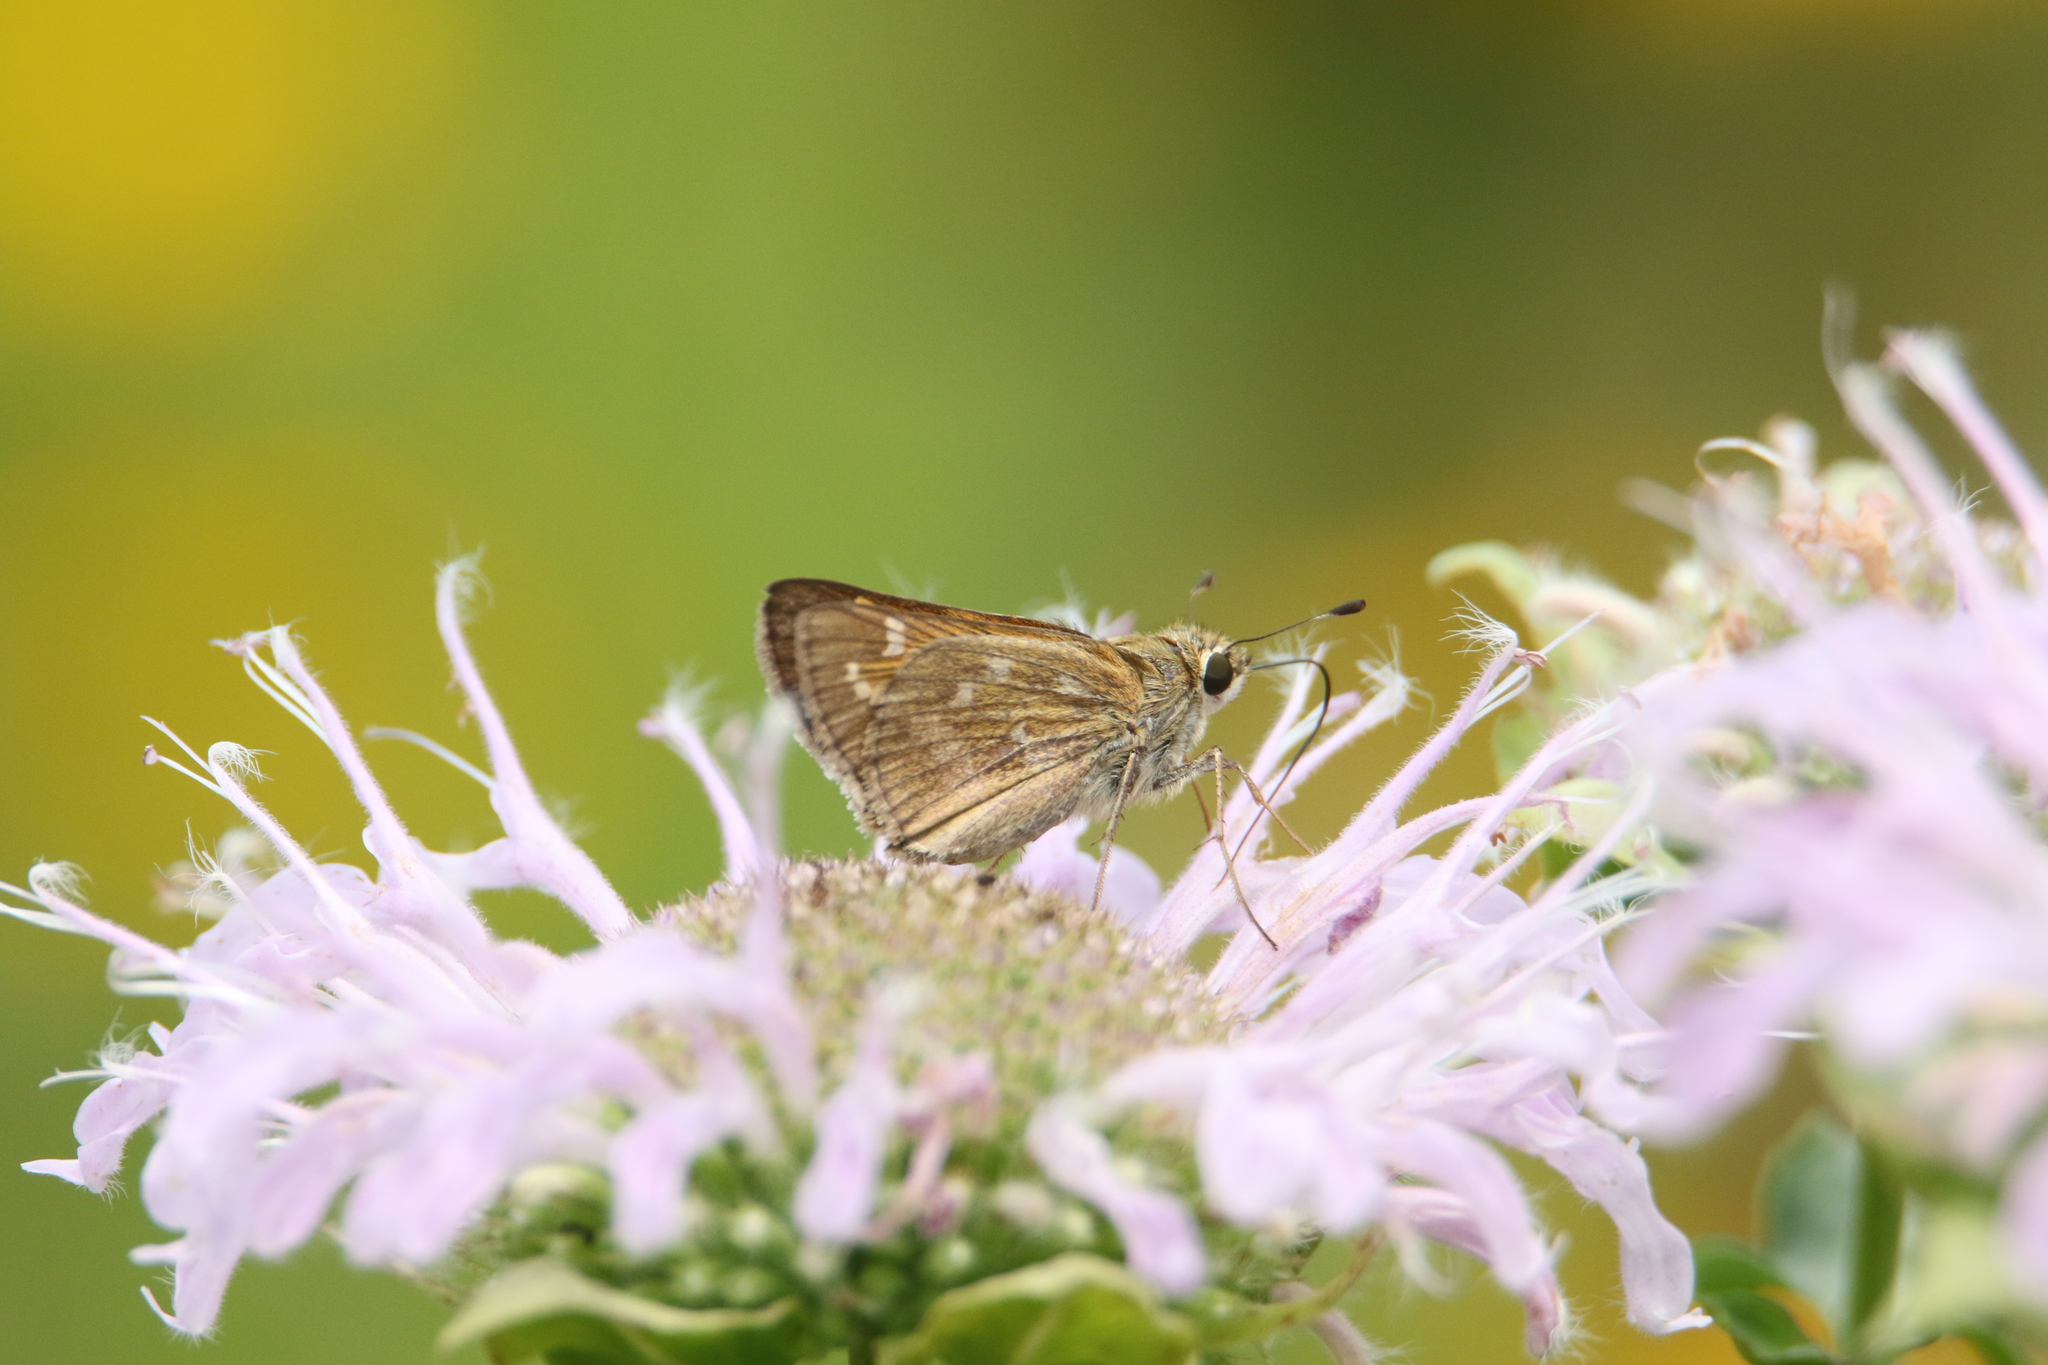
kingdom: Animalia
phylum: Arthropoda
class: Insecta
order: Lepidoptera
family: Hesperiidae
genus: Atalopedes
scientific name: Atalopedes
